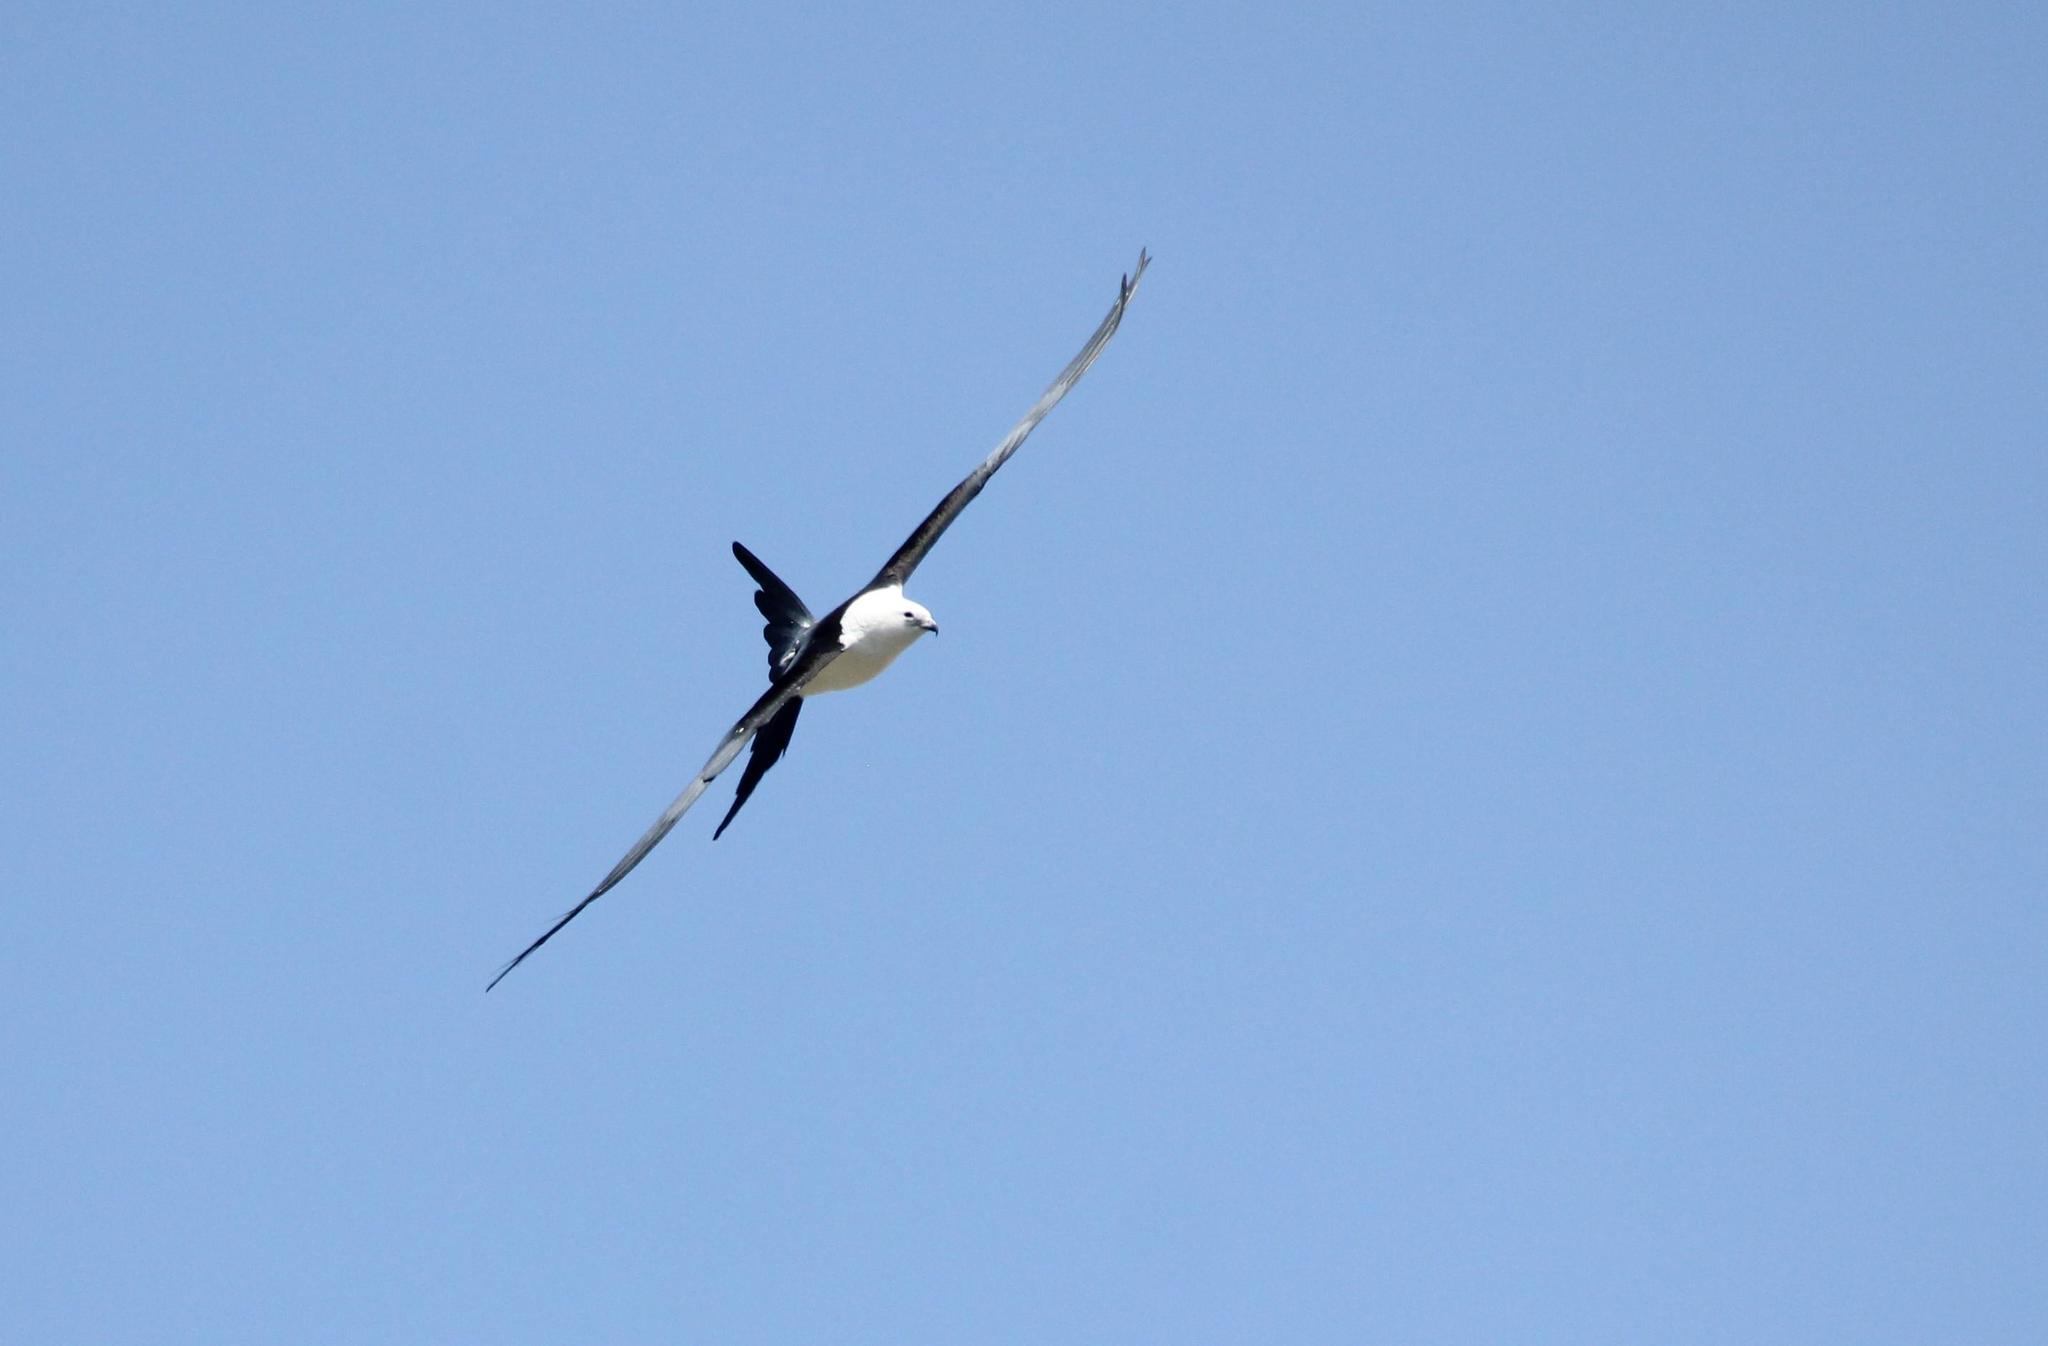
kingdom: Animalia
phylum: Chordata
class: Aves
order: Accipitriformes
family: Accipitridae
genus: Elanoides
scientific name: Elanoides forficatus
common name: Swallow-tailed kite
